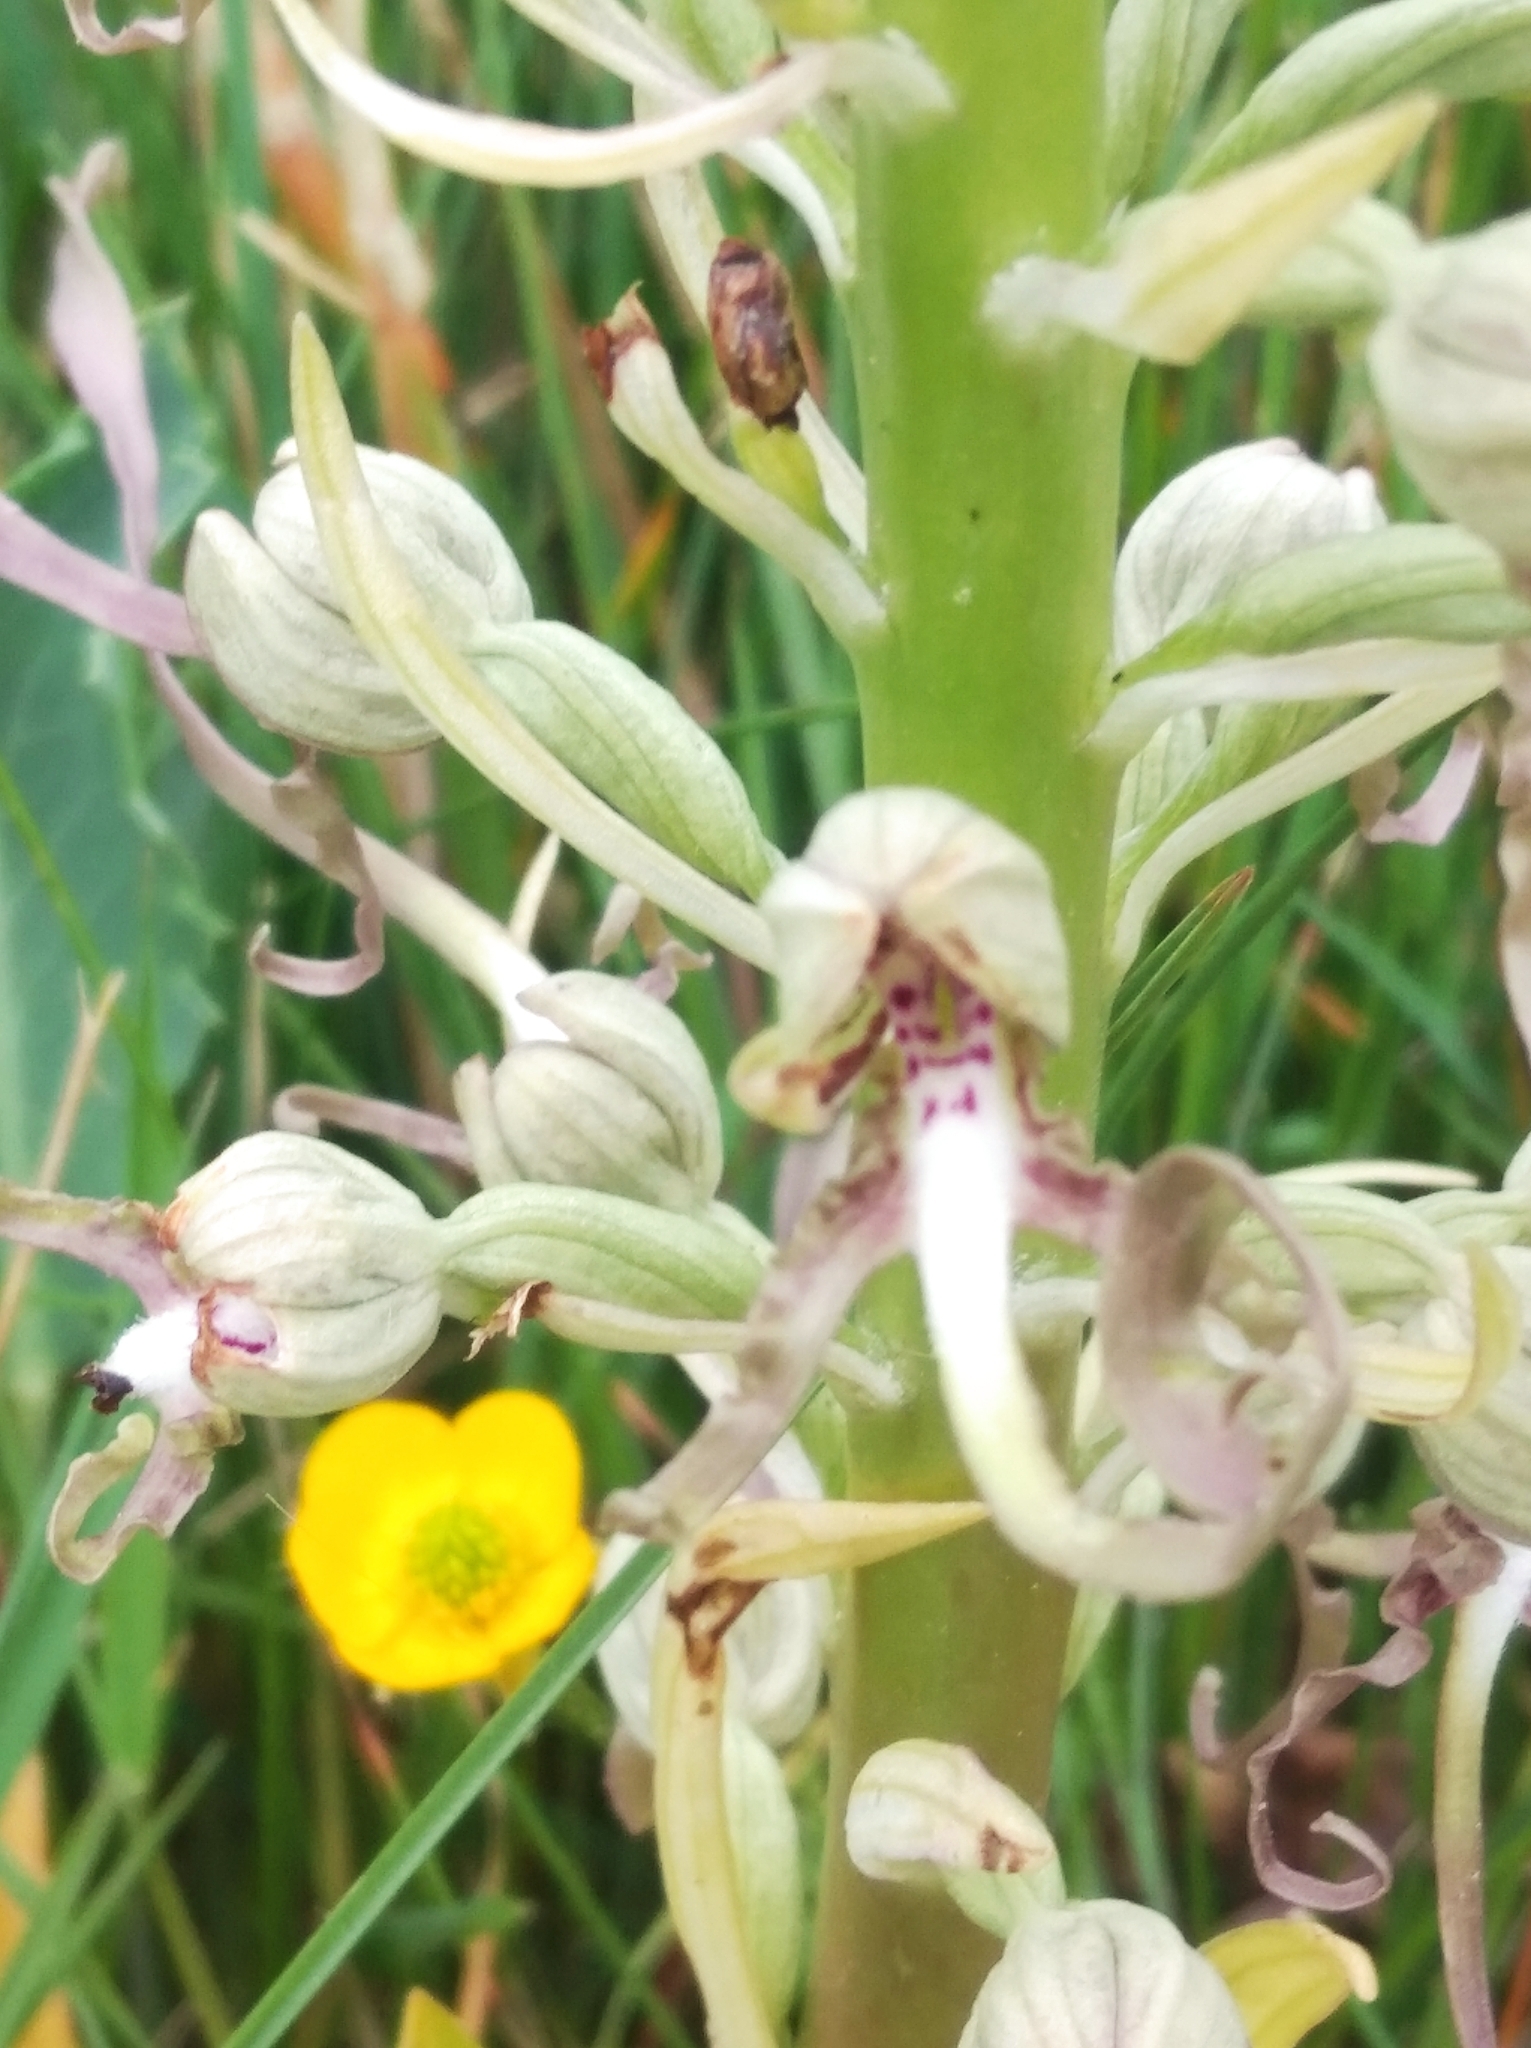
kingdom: Plantae
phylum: Tracheophyta
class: Liliopsida
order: Asparagales
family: Orchidaceae
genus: Himantoglossum
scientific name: Himantoglossum hircinum
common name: Lizard orchid
